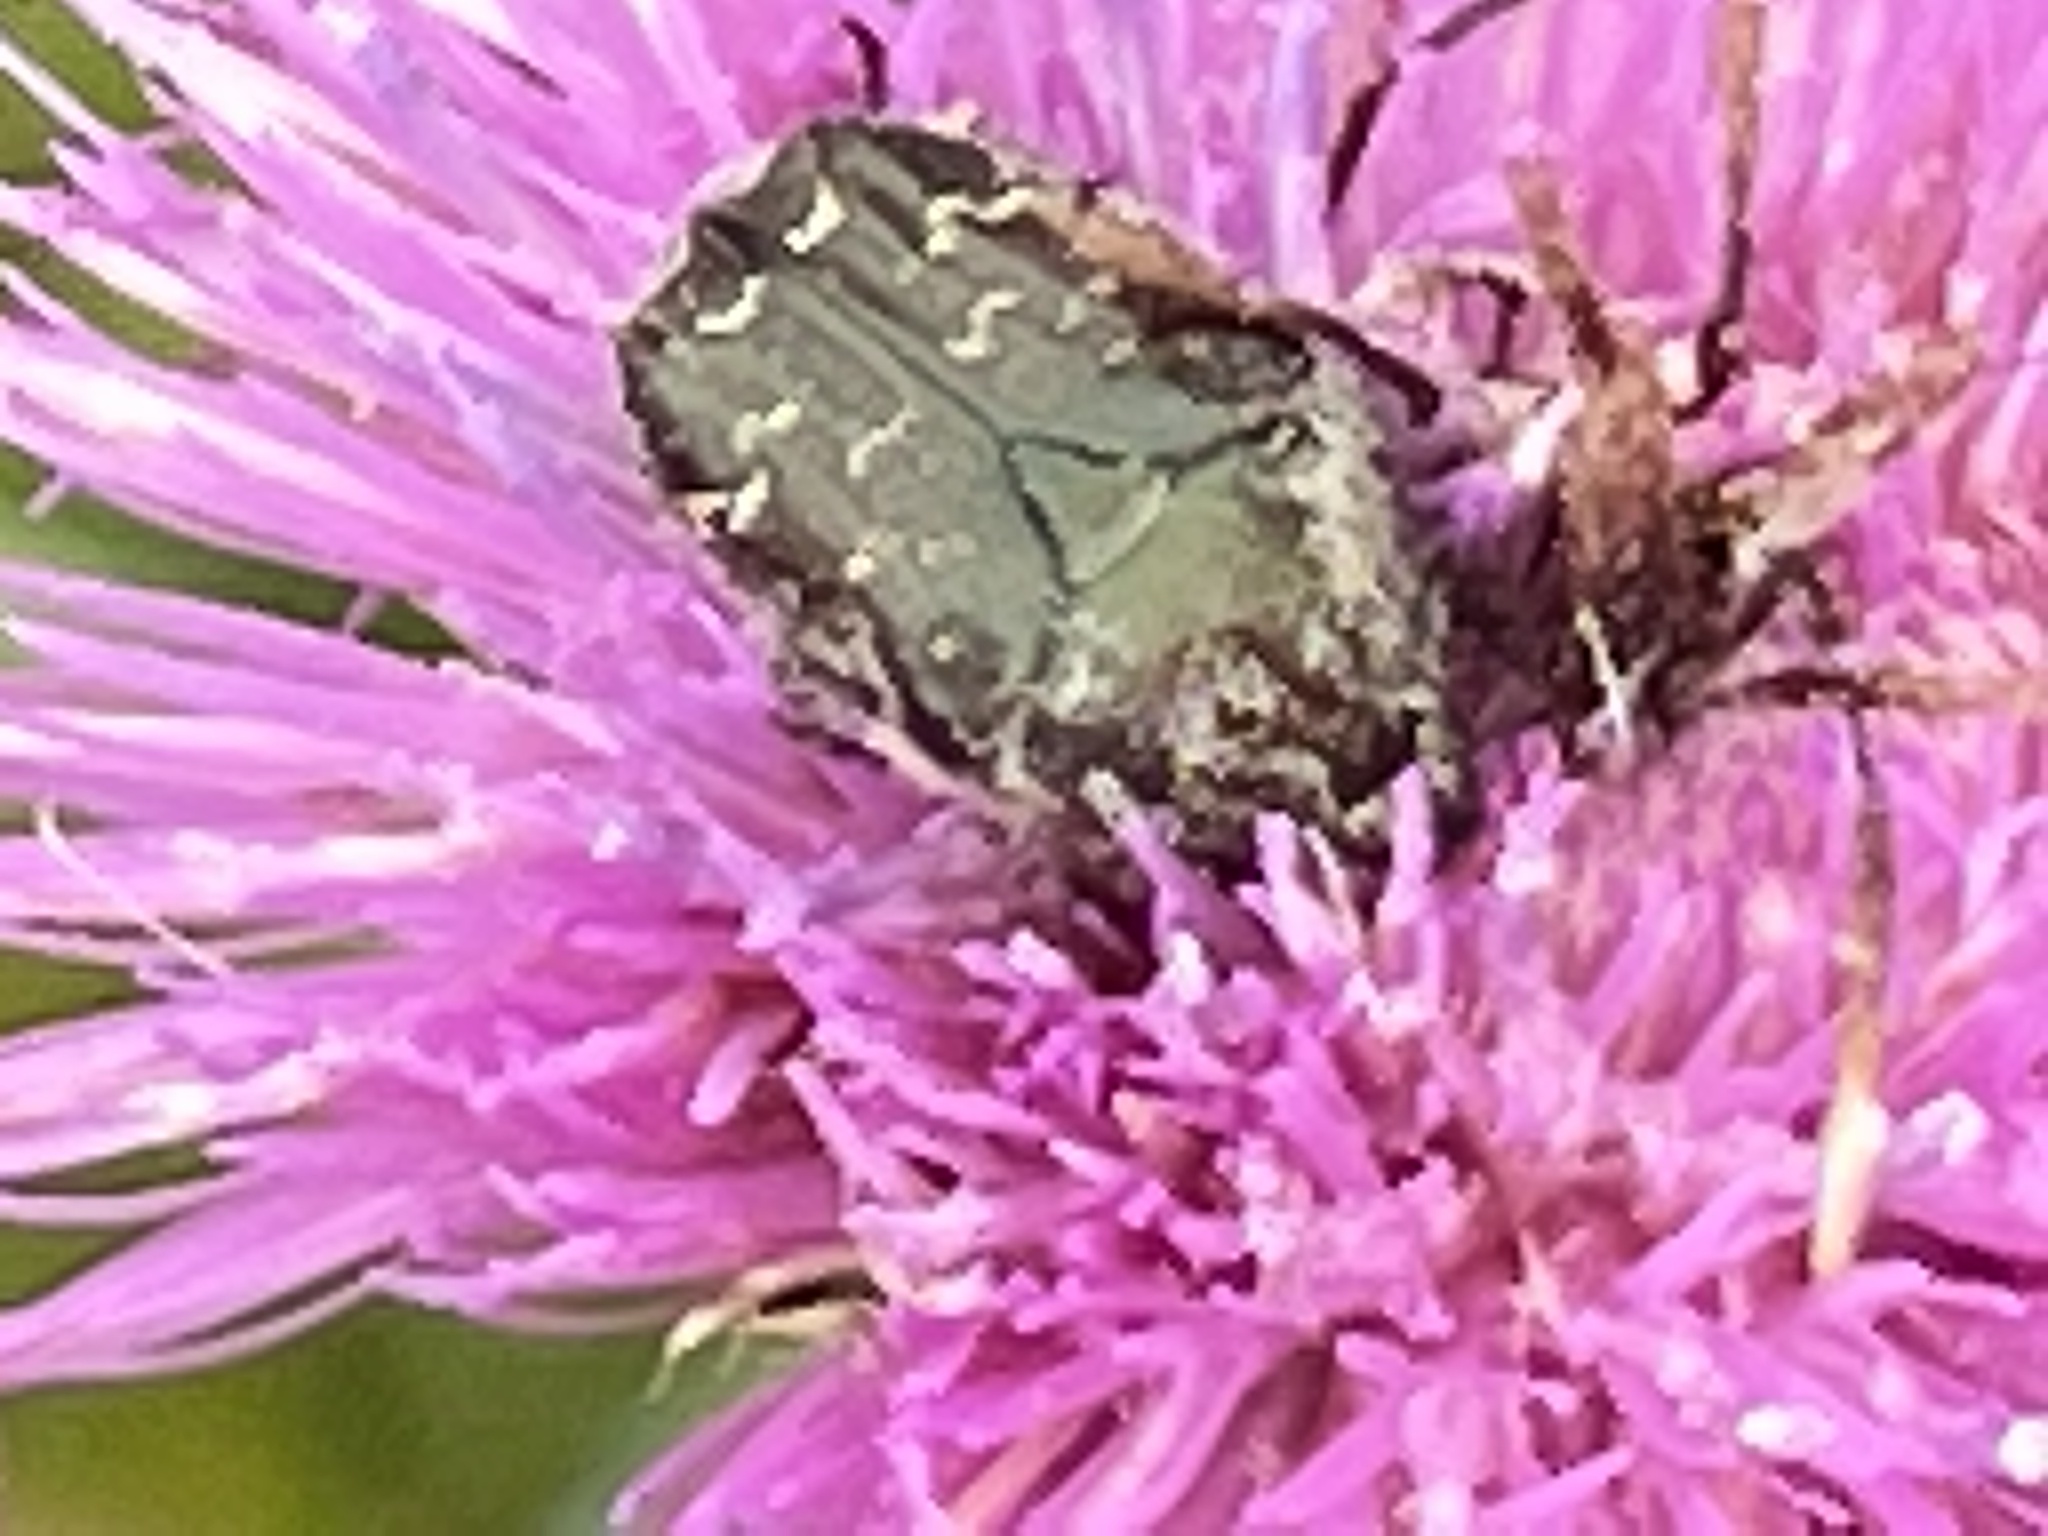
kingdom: Animalia
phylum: Arthropoda
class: Insecta
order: Coleoptera
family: Scarabaeidae
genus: Euphoria
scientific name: Euphoria sepulcralis
